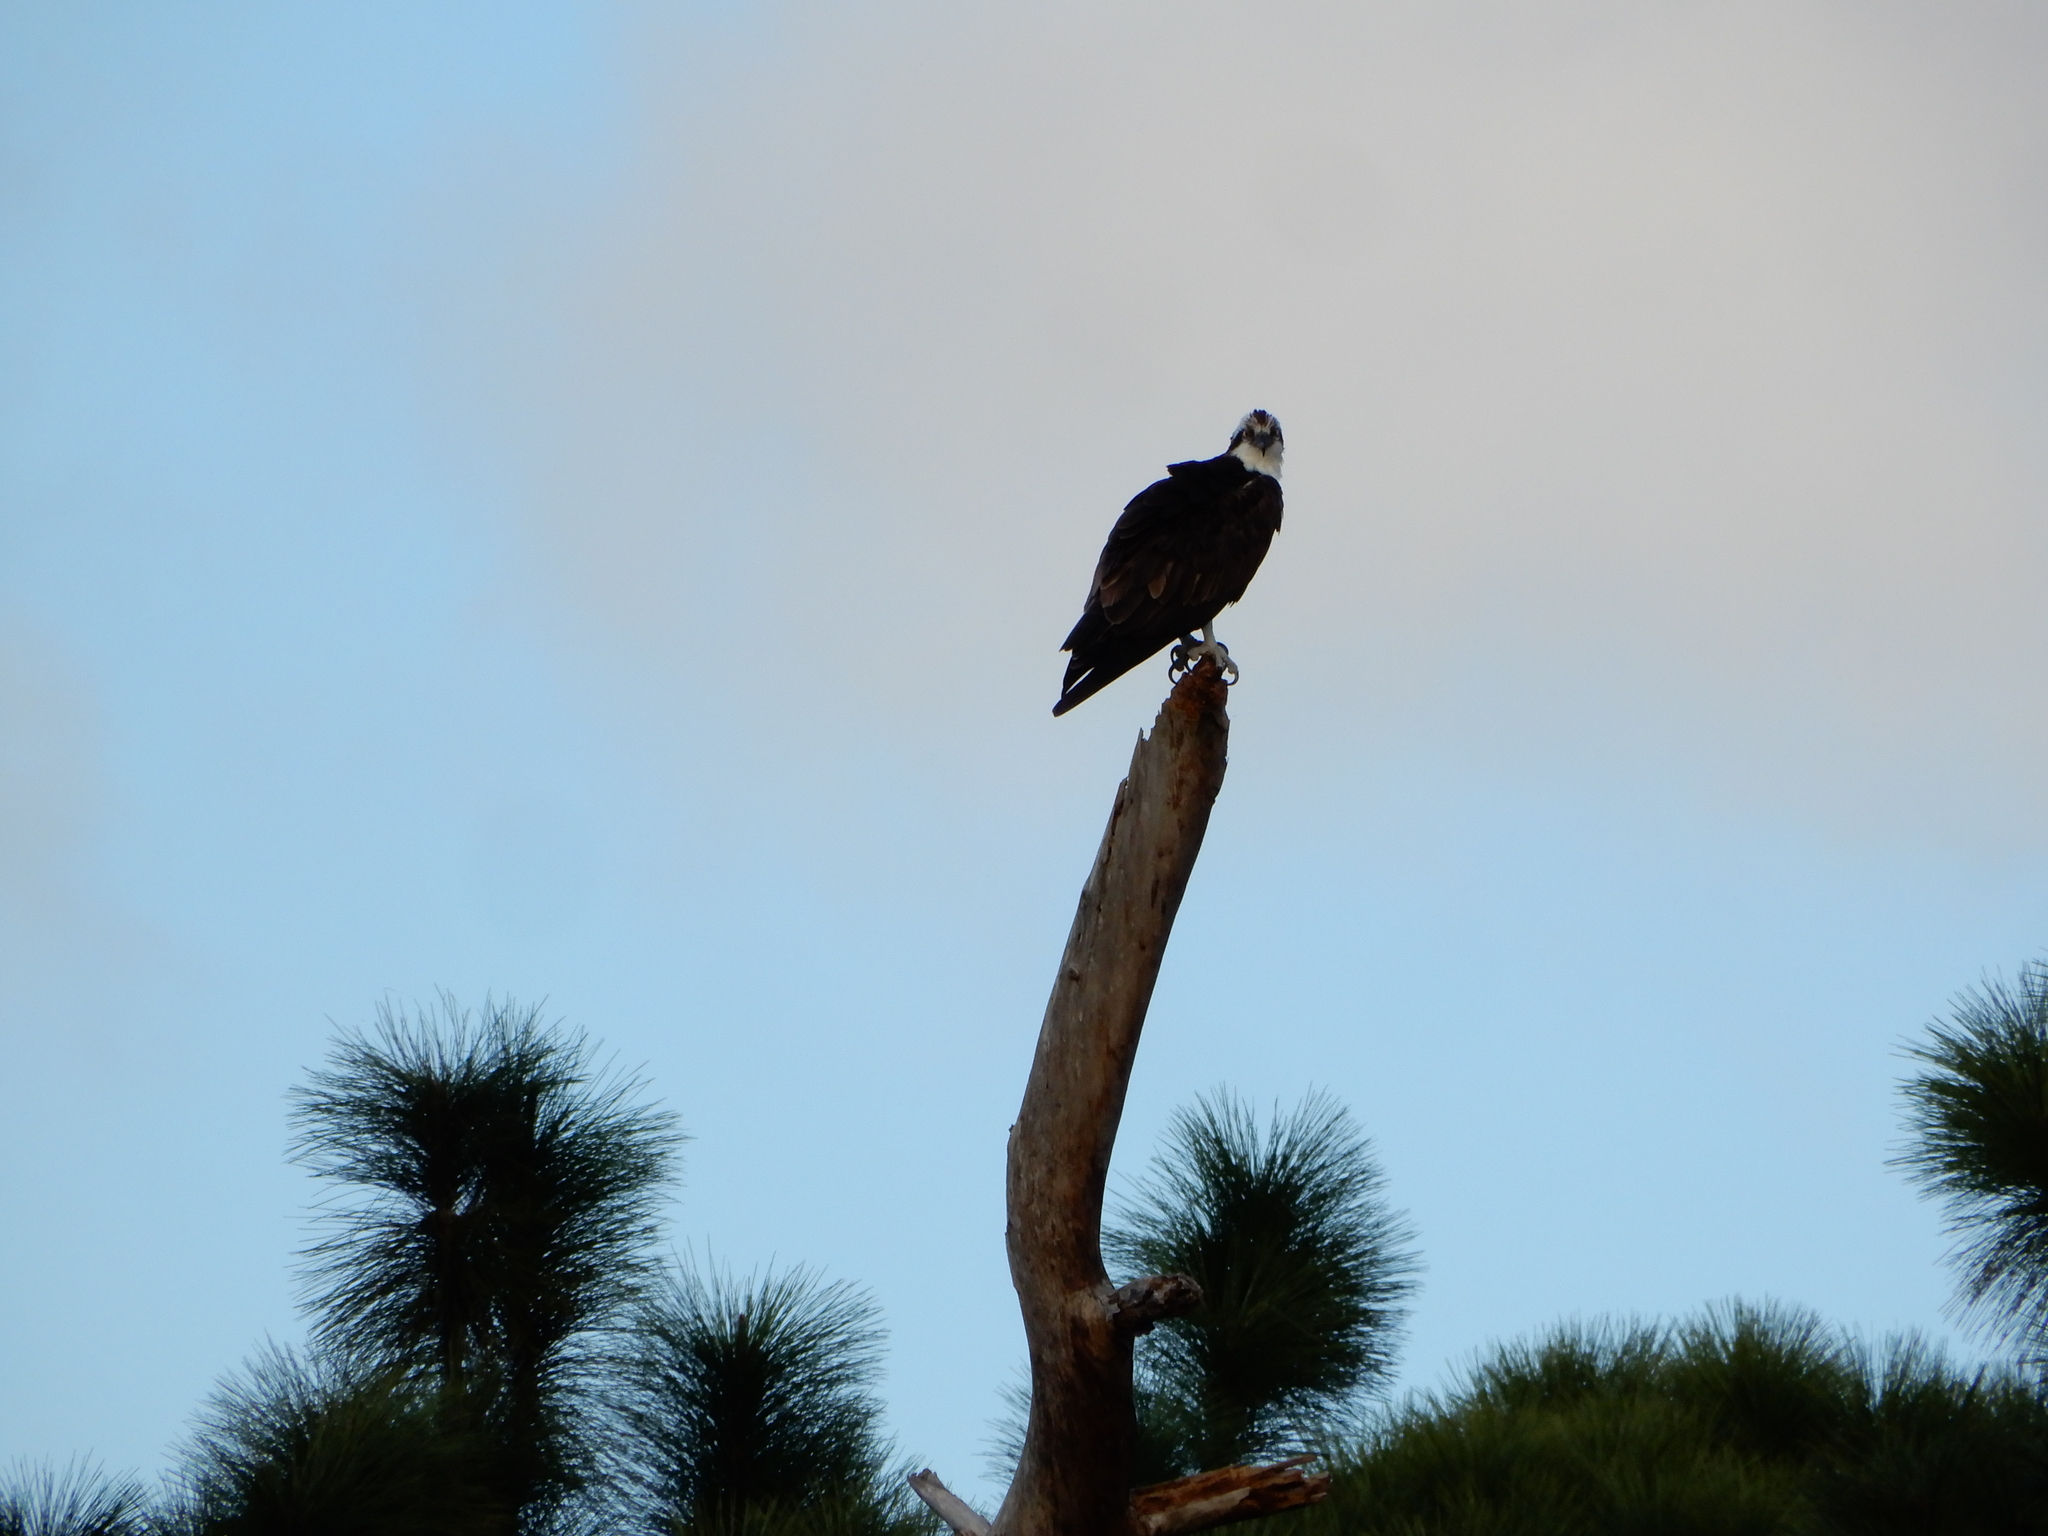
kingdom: Animalia
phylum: Chordata
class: Aves
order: Accipitriformes
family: Pandionidae
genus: Pandion
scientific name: Pandion haliaetus
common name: Osprey
